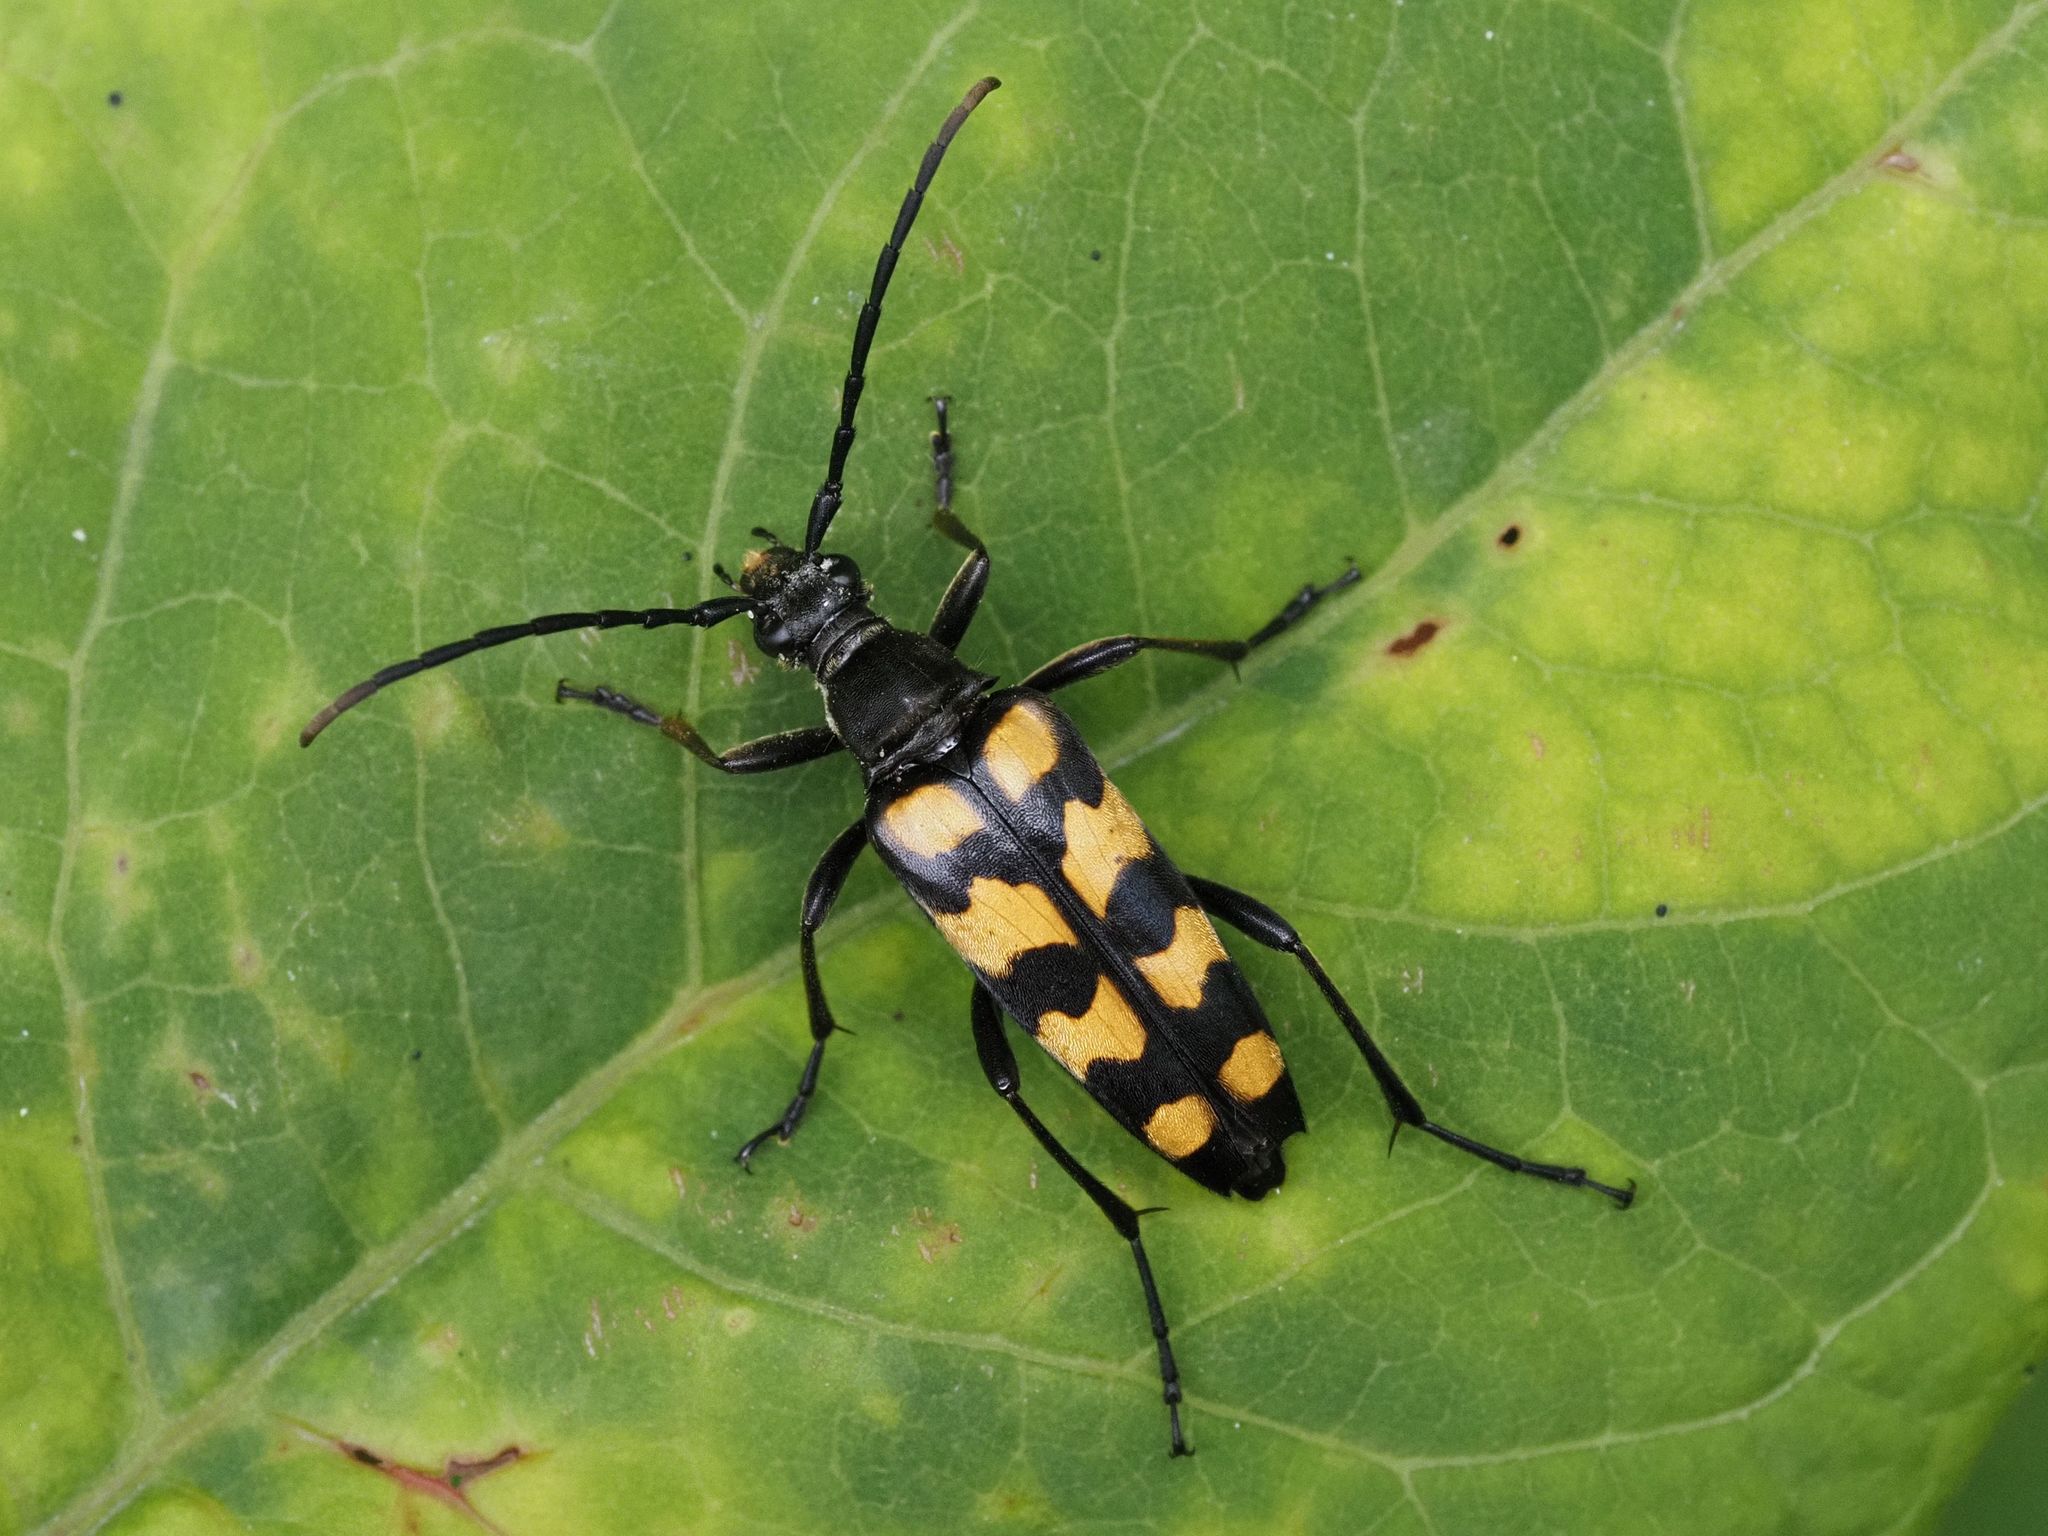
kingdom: Animalia
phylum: Arthropoda
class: Insecta
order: Coleoptera
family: Cerambycidae
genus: Leptura
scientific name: Leptura quadrifasciata
